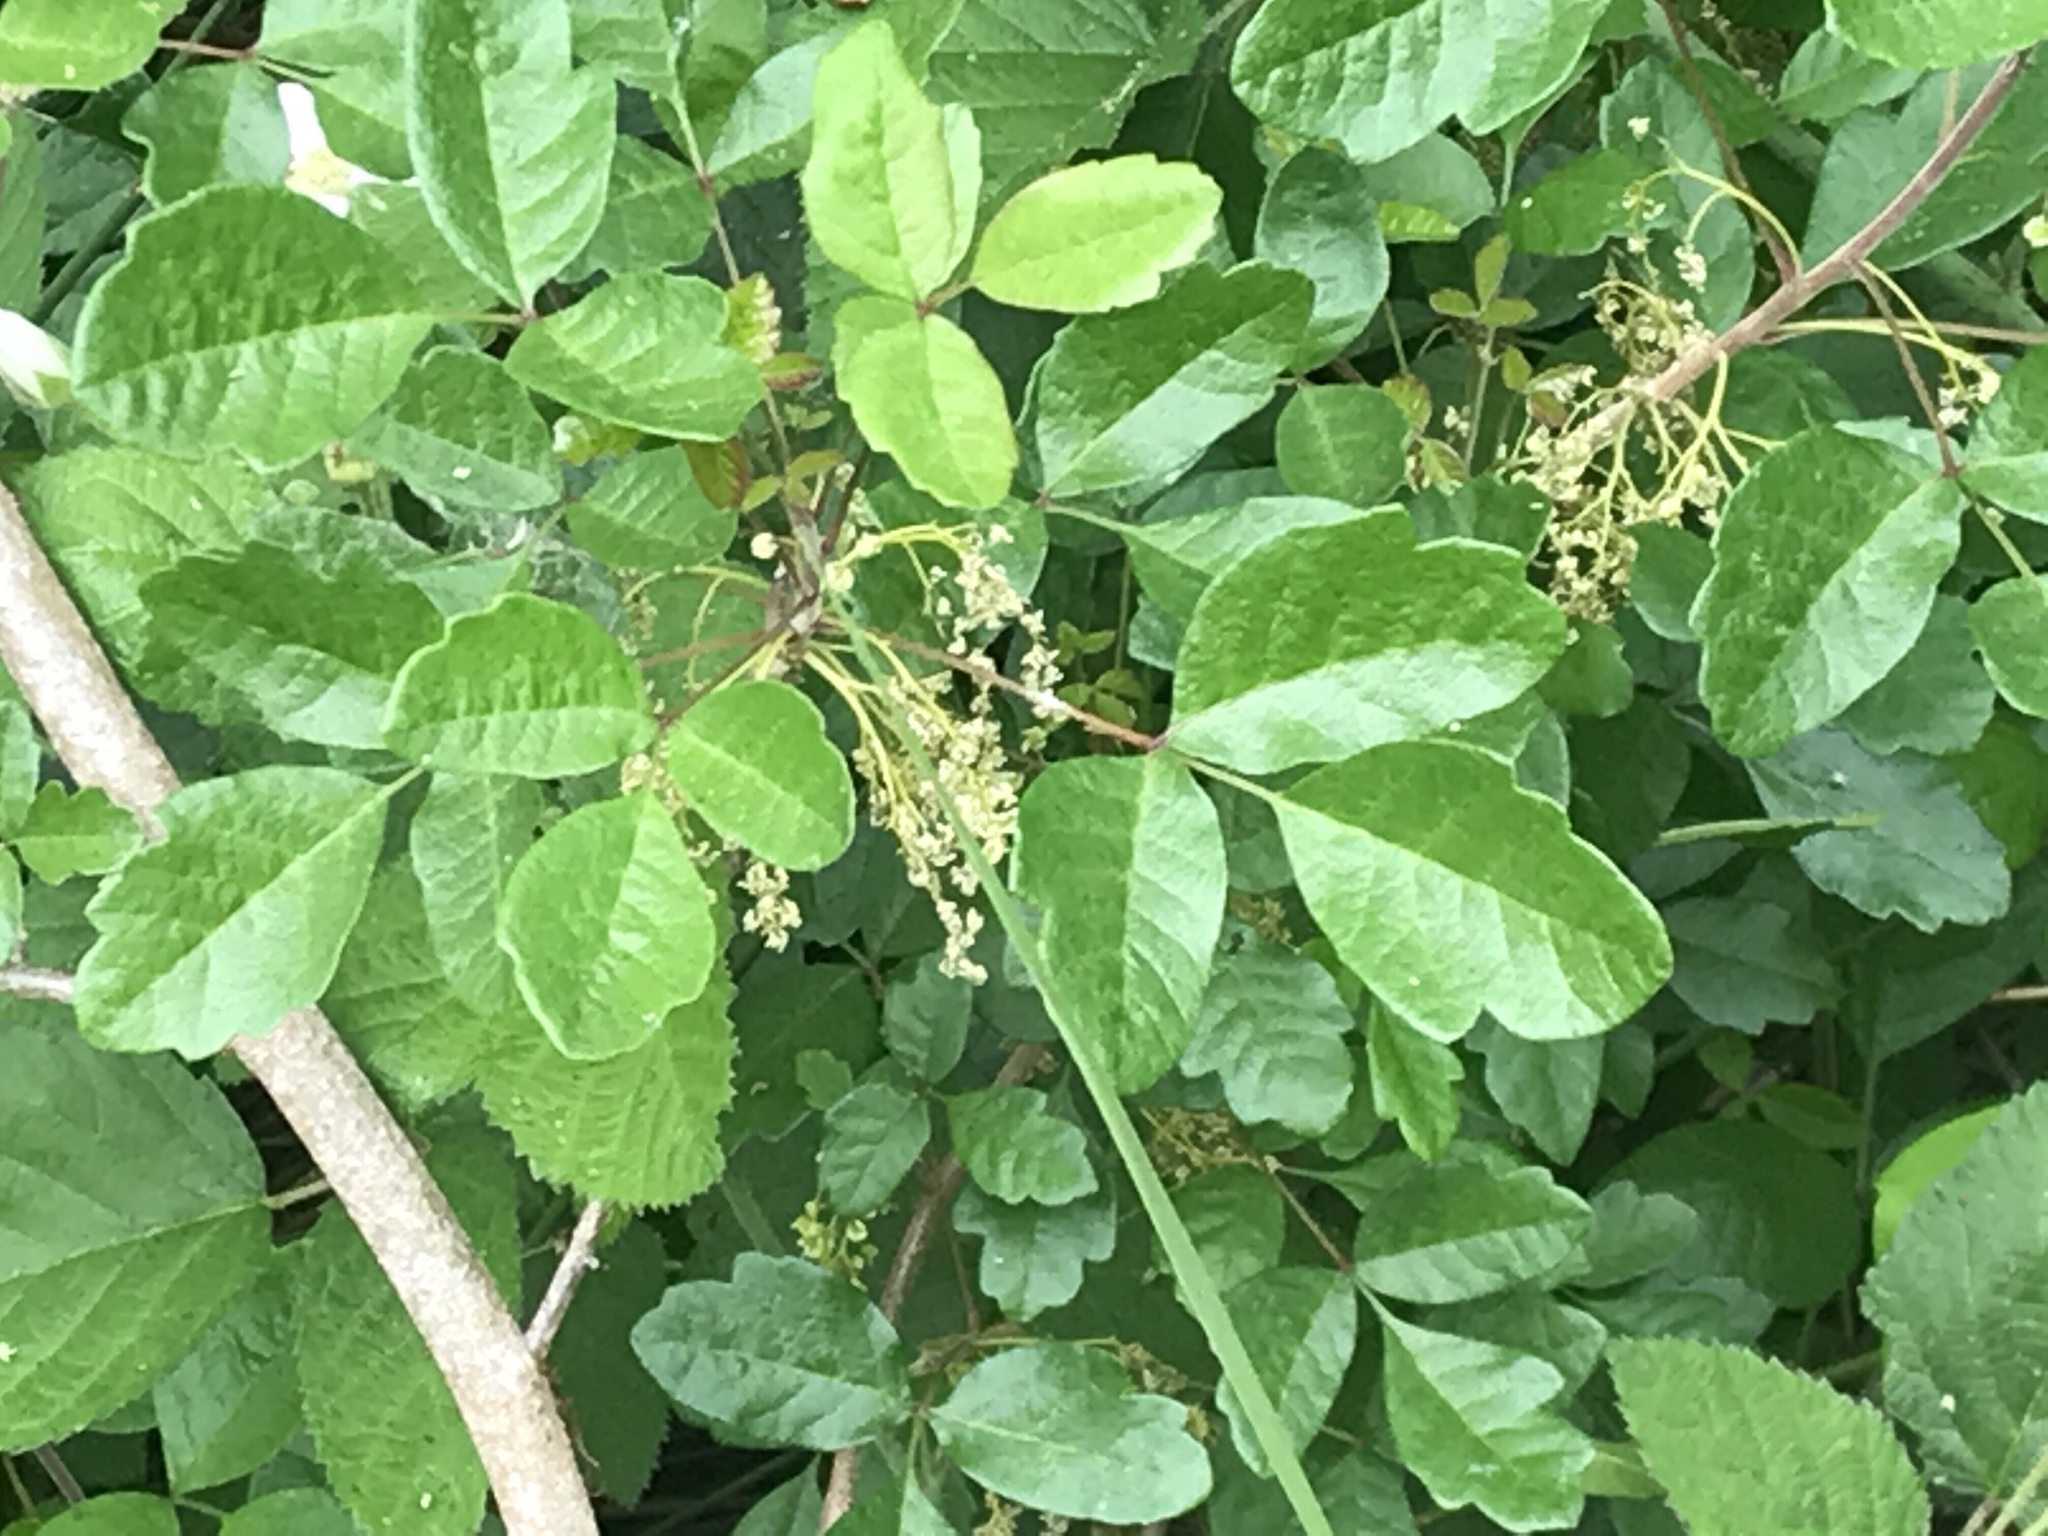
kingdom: Plantae
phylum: Tracheophyta
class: Magnoliopsida
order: Sapindales
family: Anacardiaceae
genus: Toxicodendron
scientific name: Toxicodendron diversilobum
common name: Pacific poison-oak
